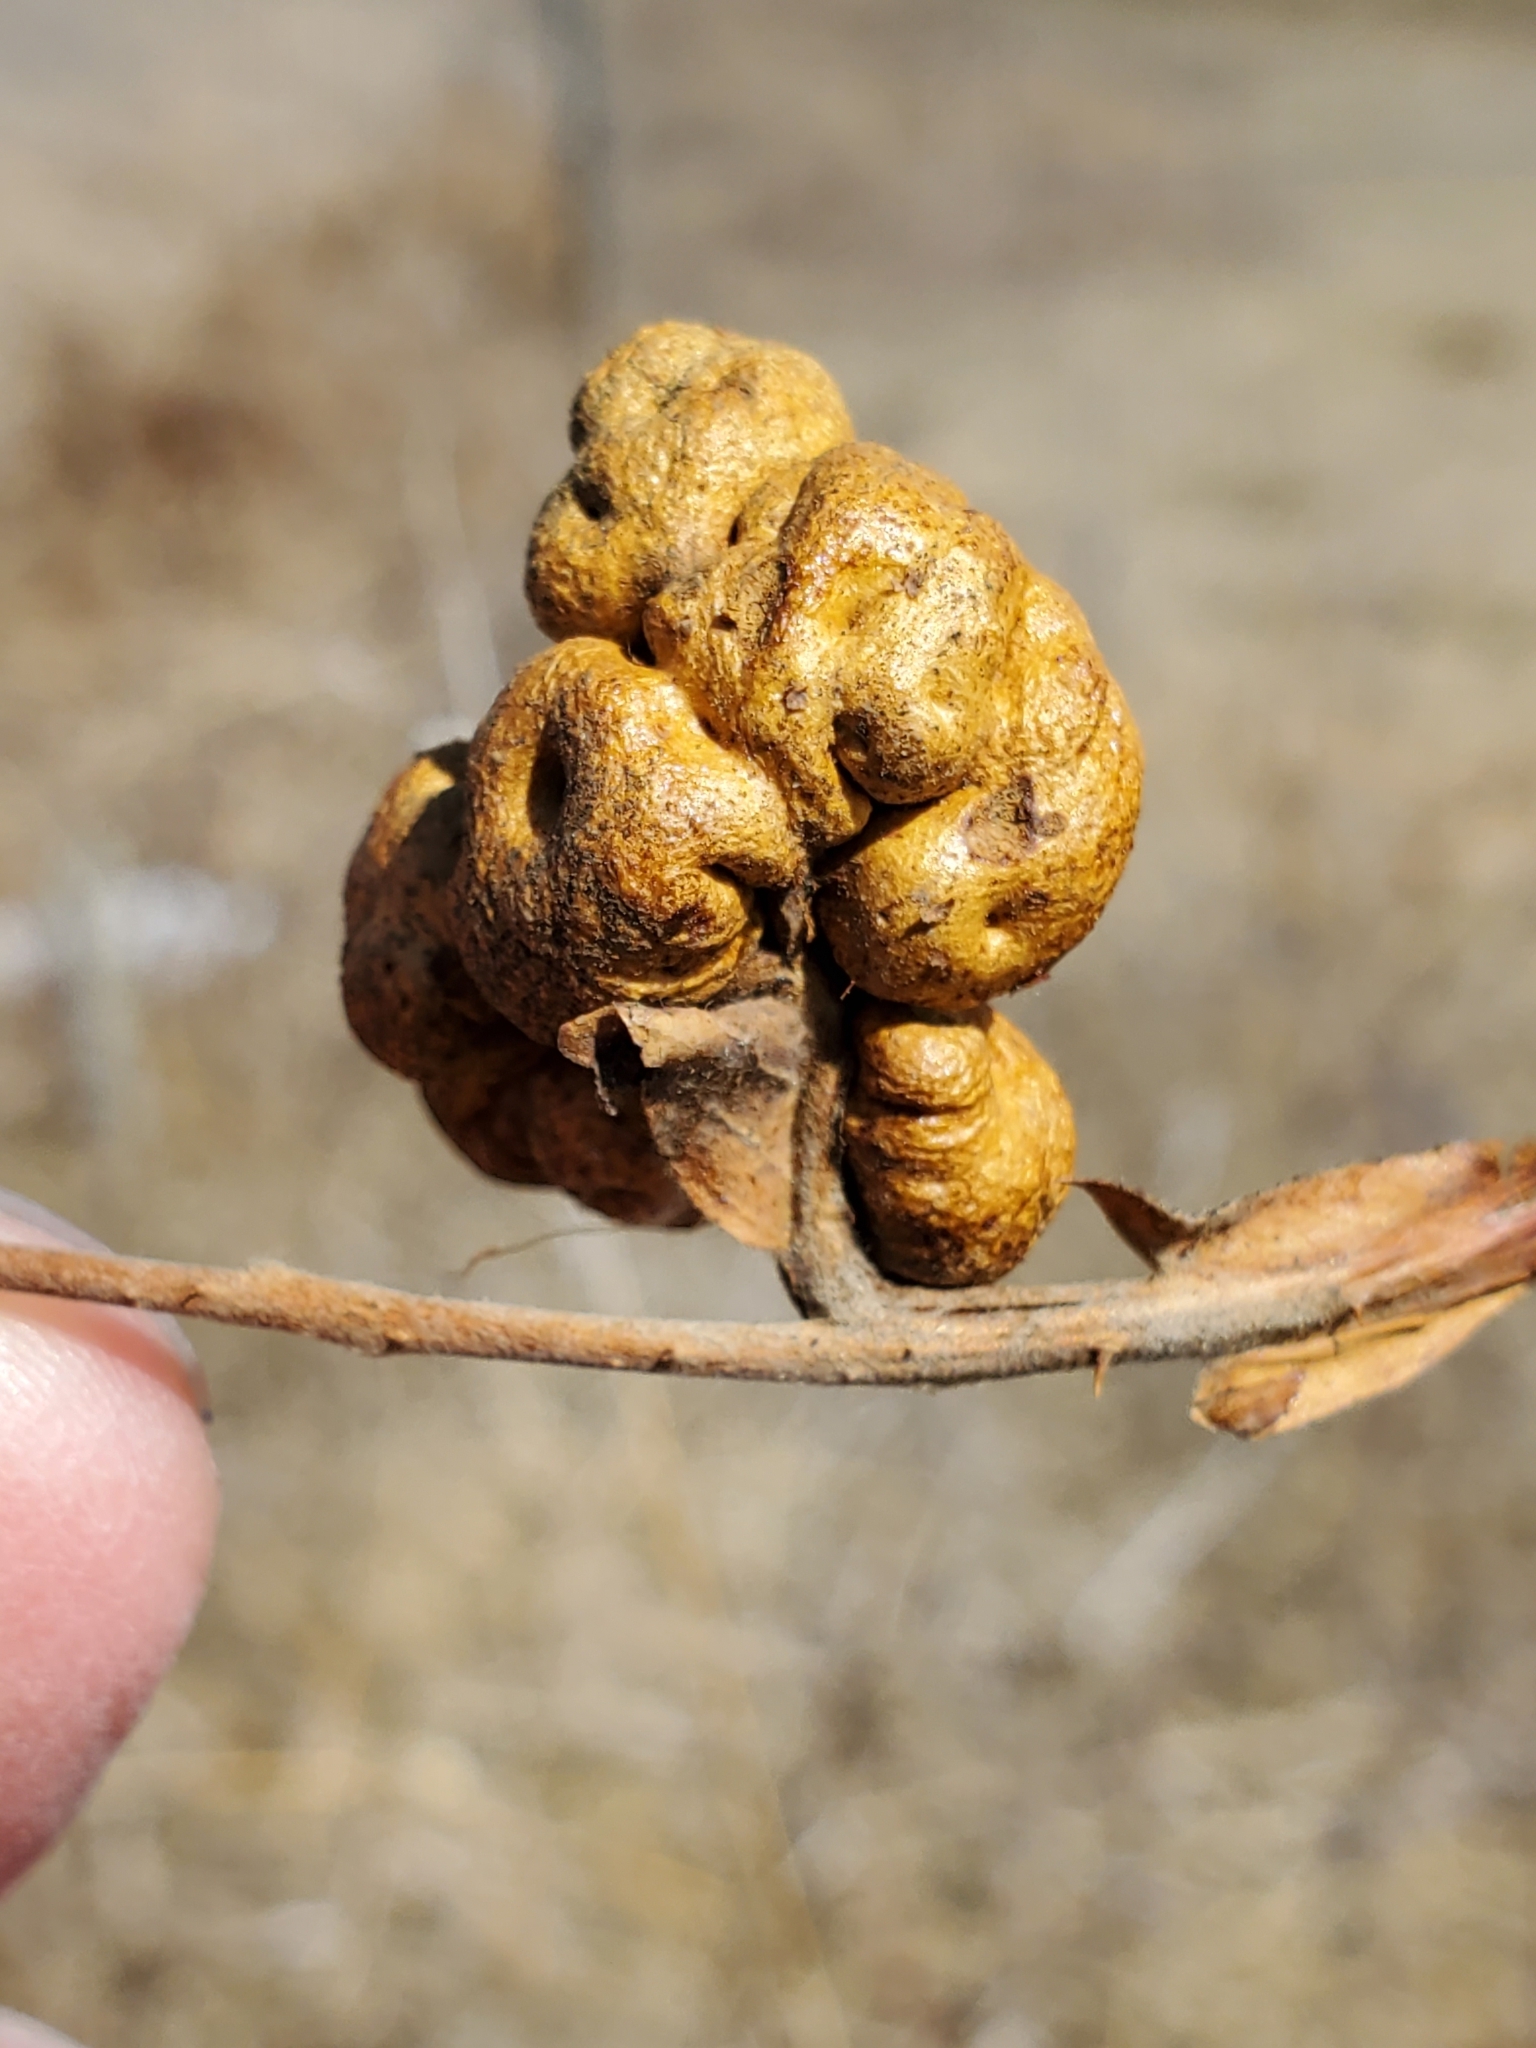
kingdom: Animalia
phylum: Arthropoda
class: Insecta
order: Hymenoptera
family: Cynipidae
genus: Diplolepis
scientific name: Diplolepis ignota
